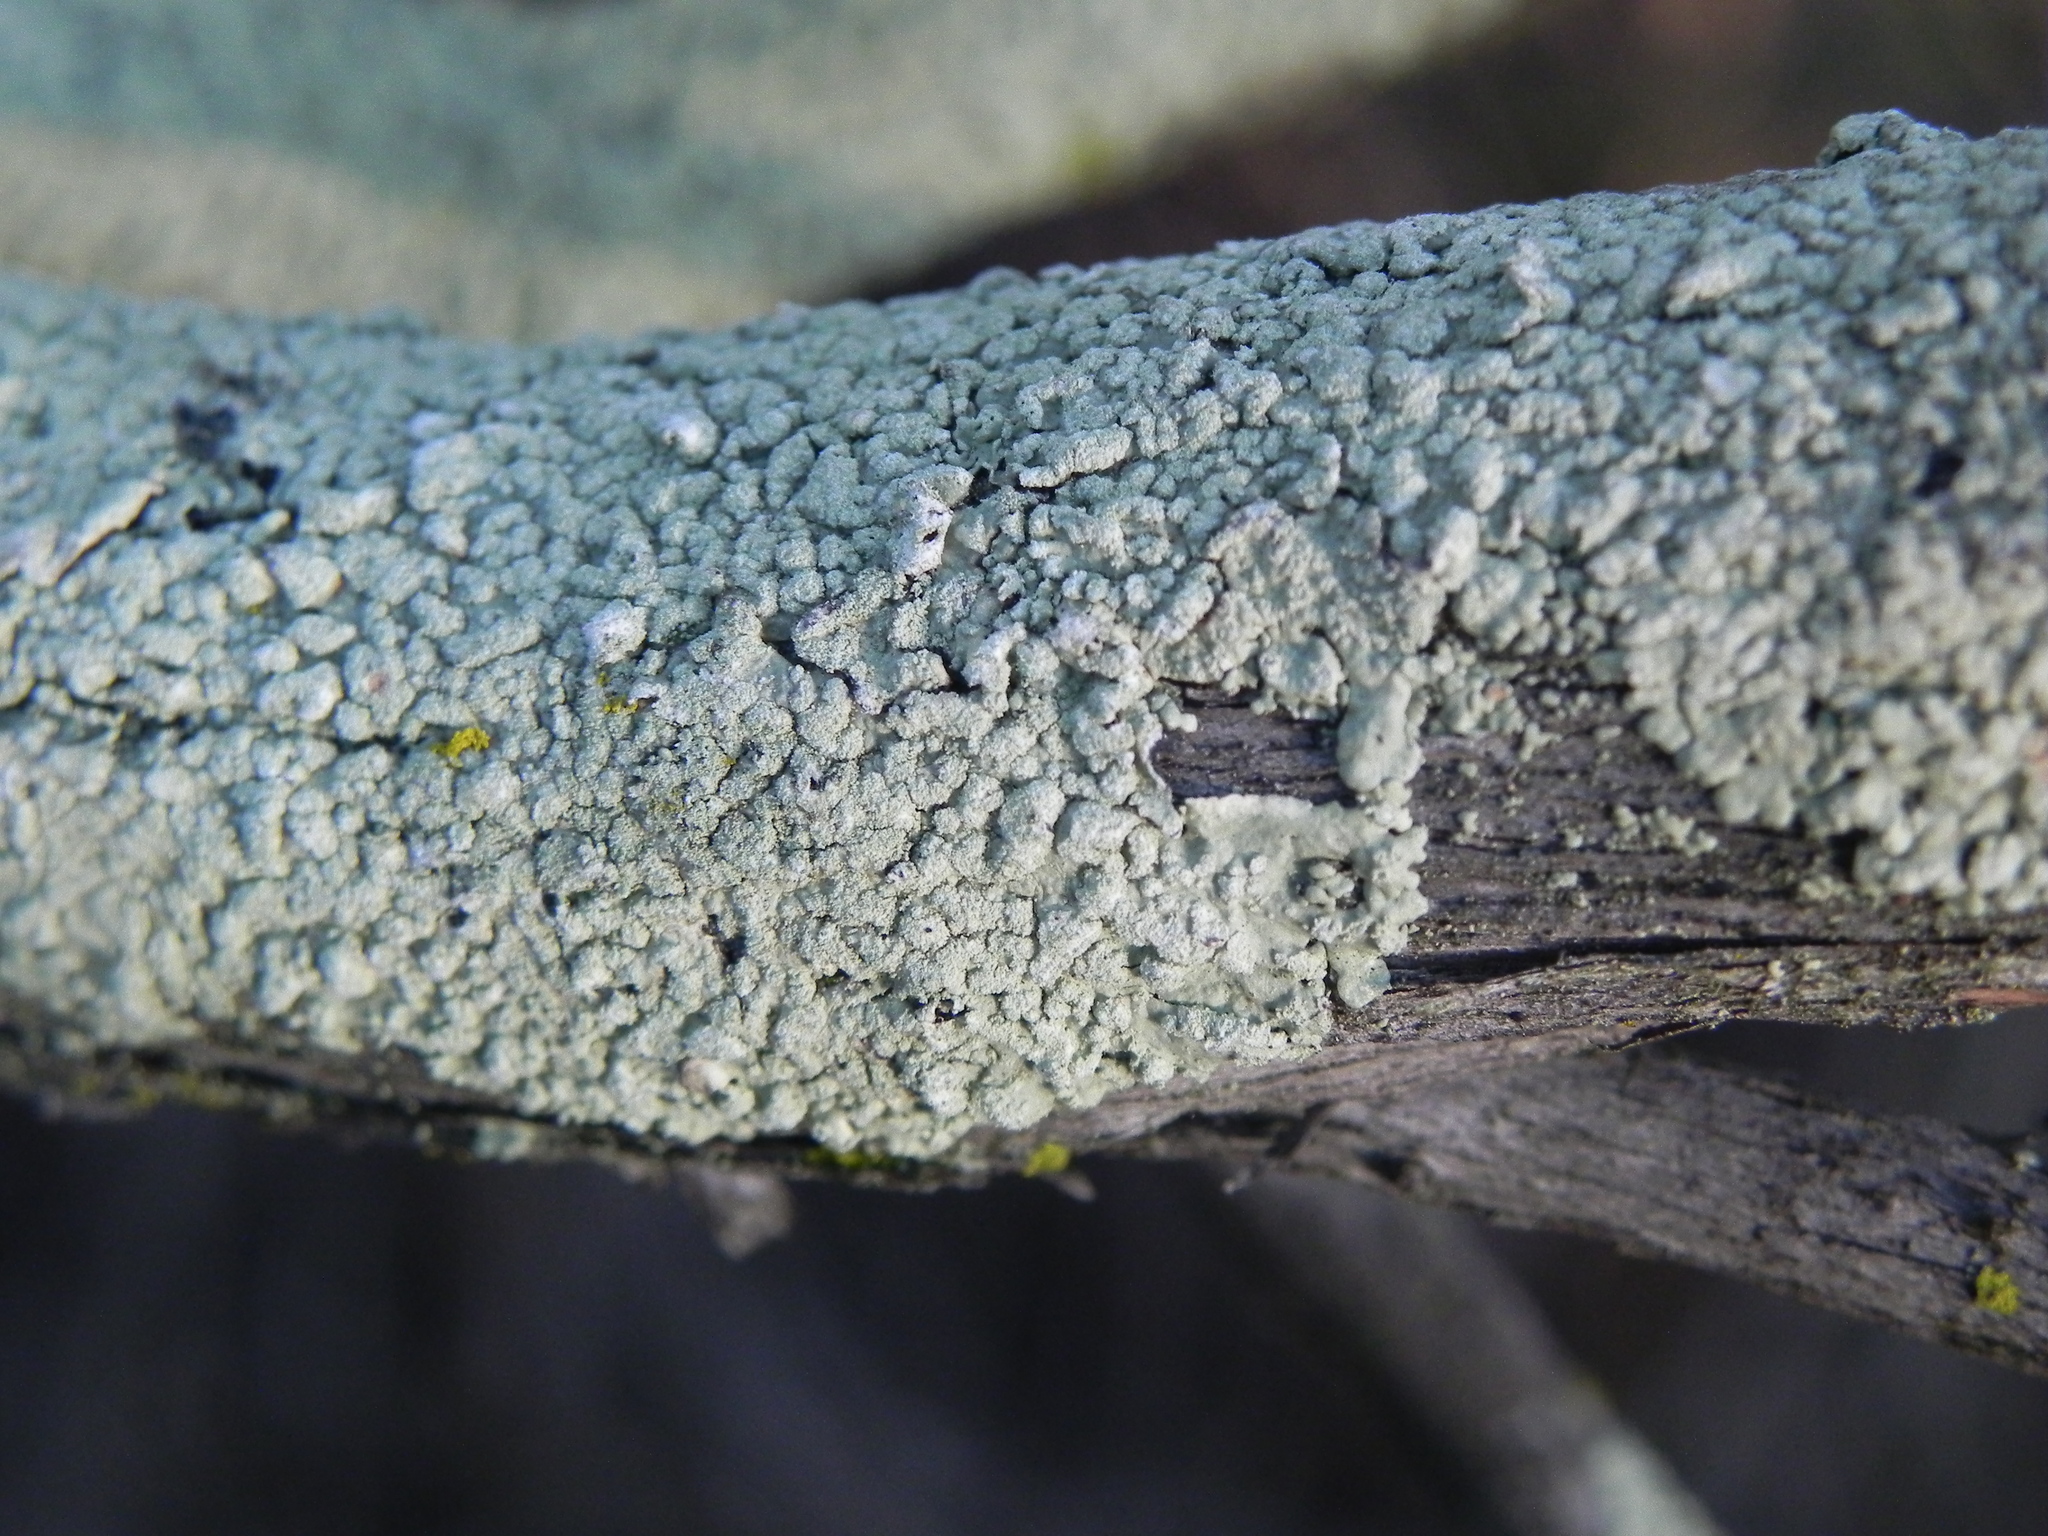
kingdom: Fungi
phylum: Ascomycota
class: Lecanoromycetes
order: Lecanorales
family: Parmeliaceae
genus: Flavoparmelia
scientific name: Flavoparmelia subcapitata
